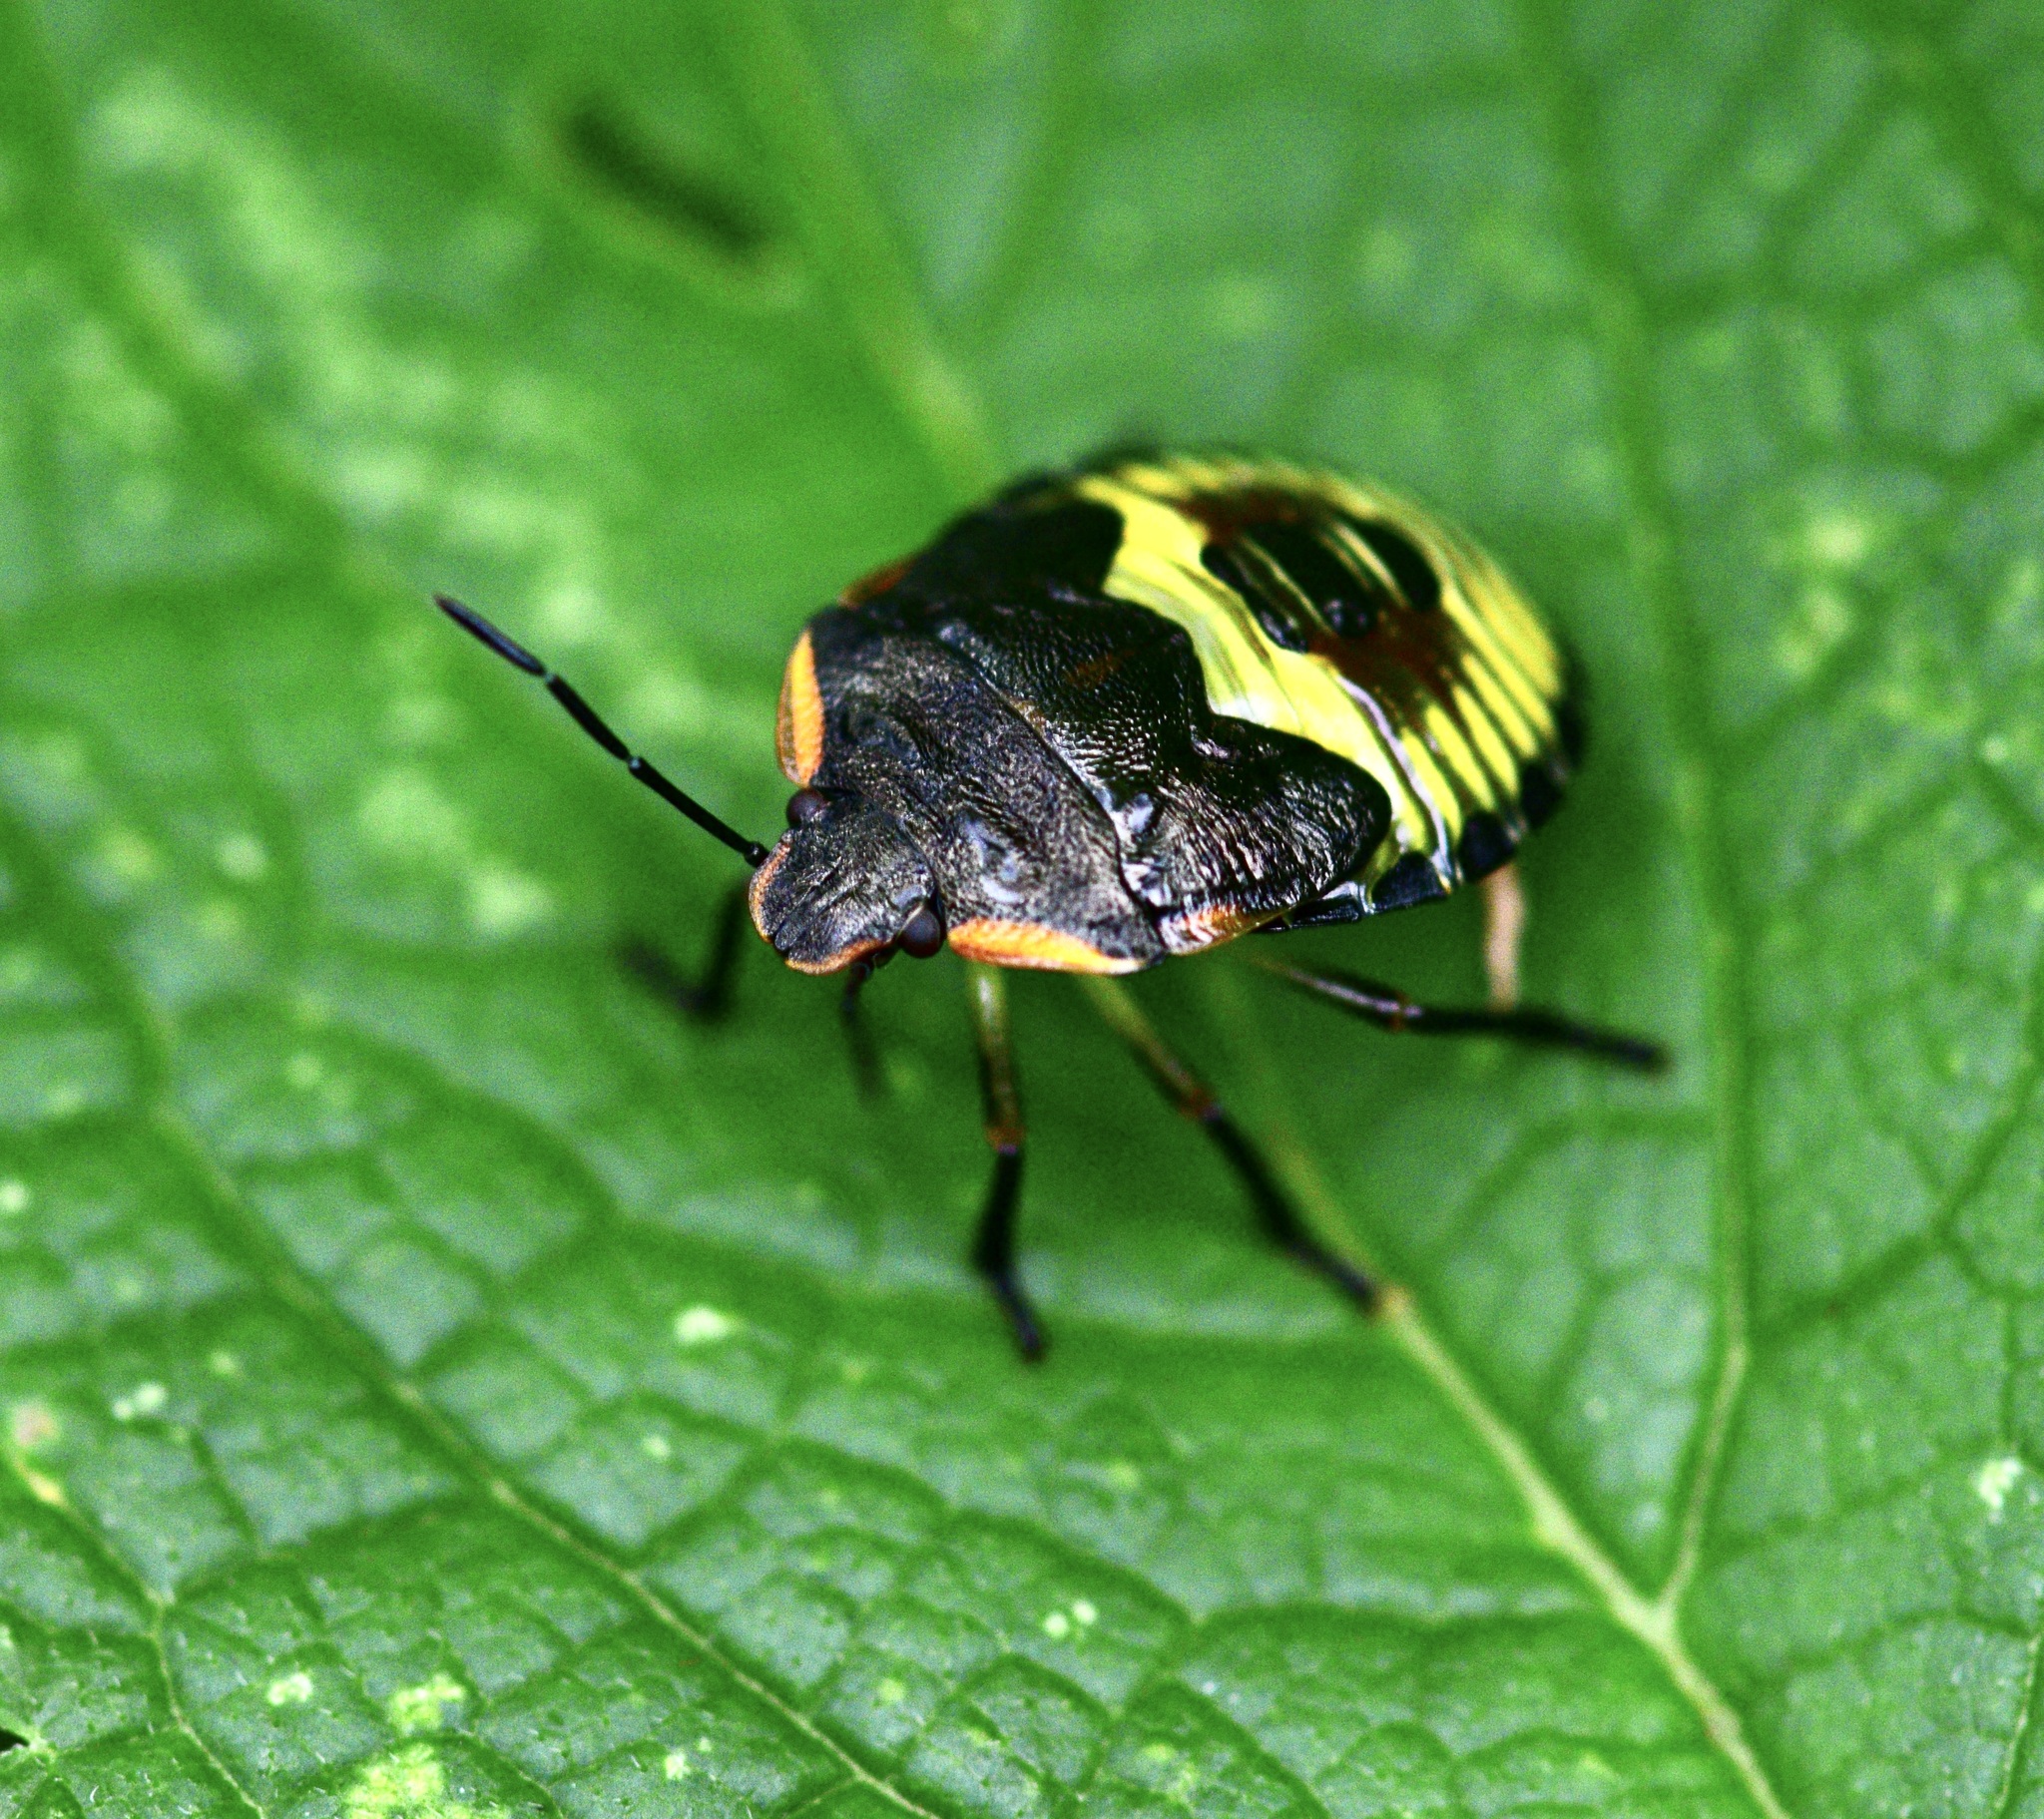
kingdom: Animalia
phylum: Arthropoda
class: Insecta
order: Hemiptera
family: Pentatomidae
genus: Chinavia
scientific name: Chinavia hilaris
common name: Green stink bug
